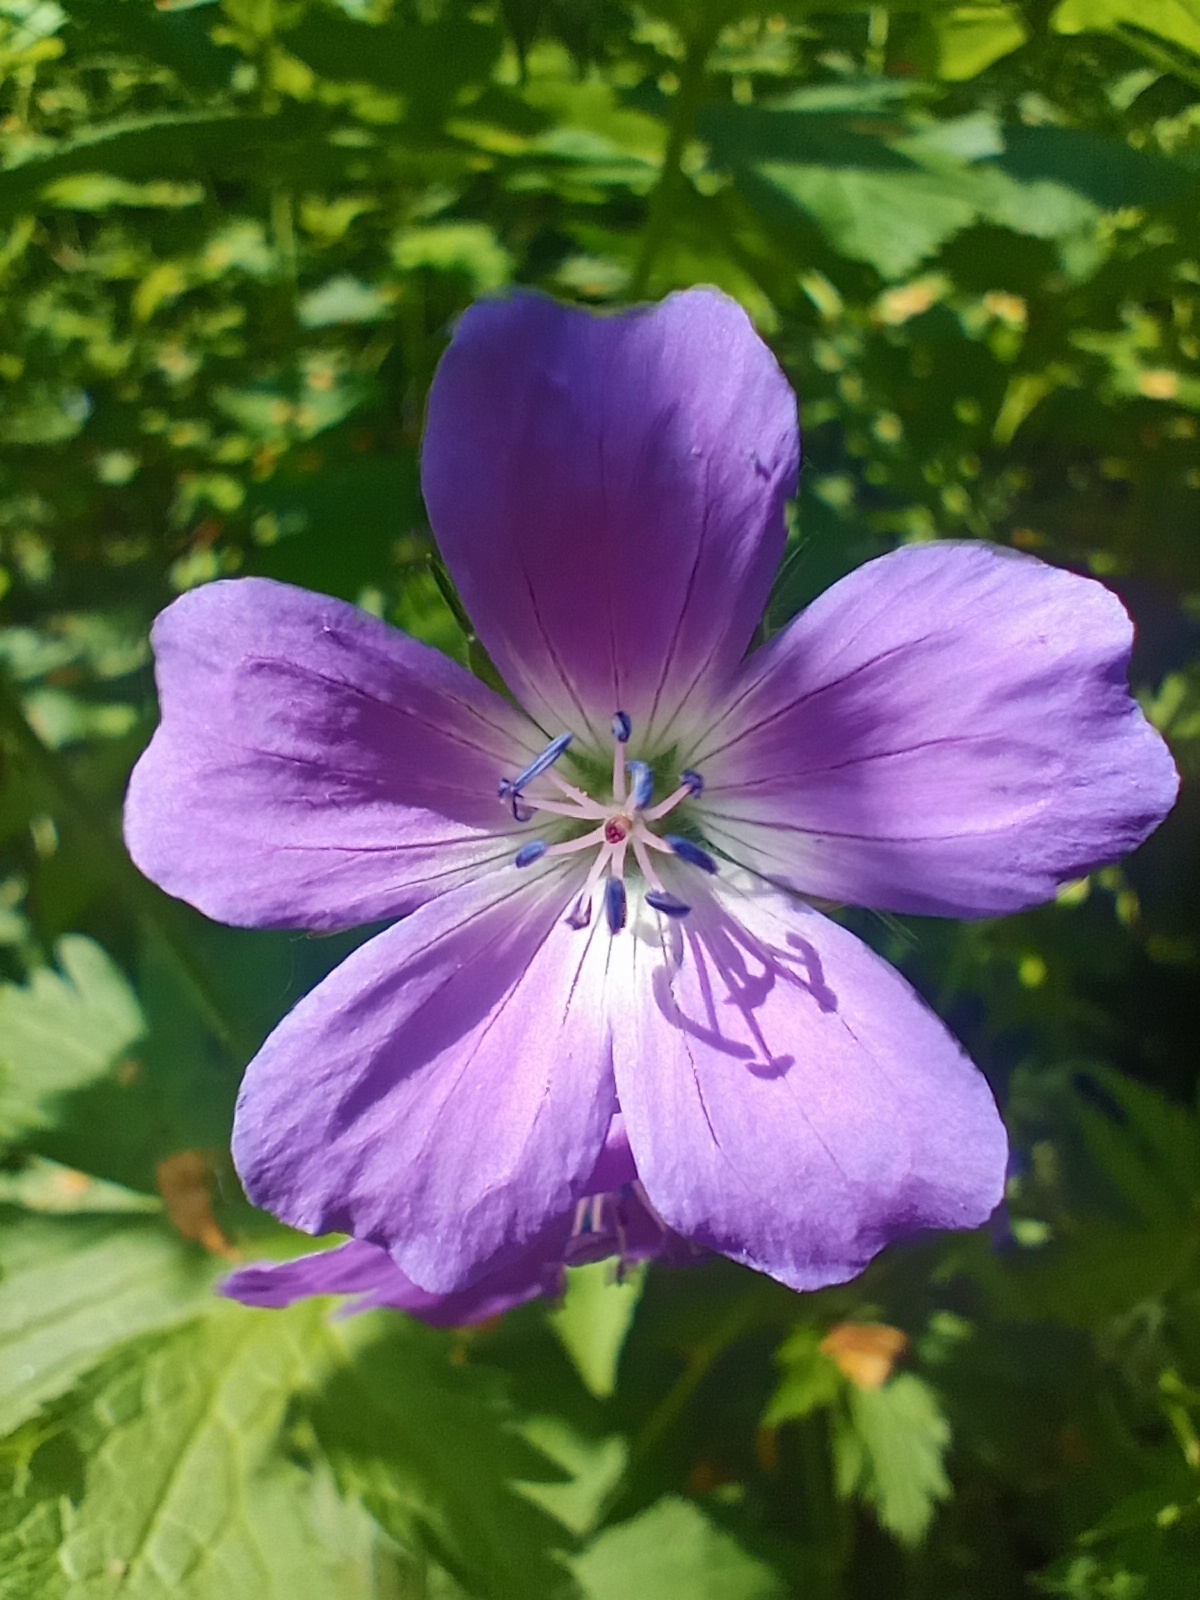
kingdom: Plantae
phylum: Tracheophyta
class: Magnoliopsida
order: Geraniales
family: Geraniaceae
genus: Geranium
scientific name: Geranium sylvaticum
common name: Wood crane's-bill
